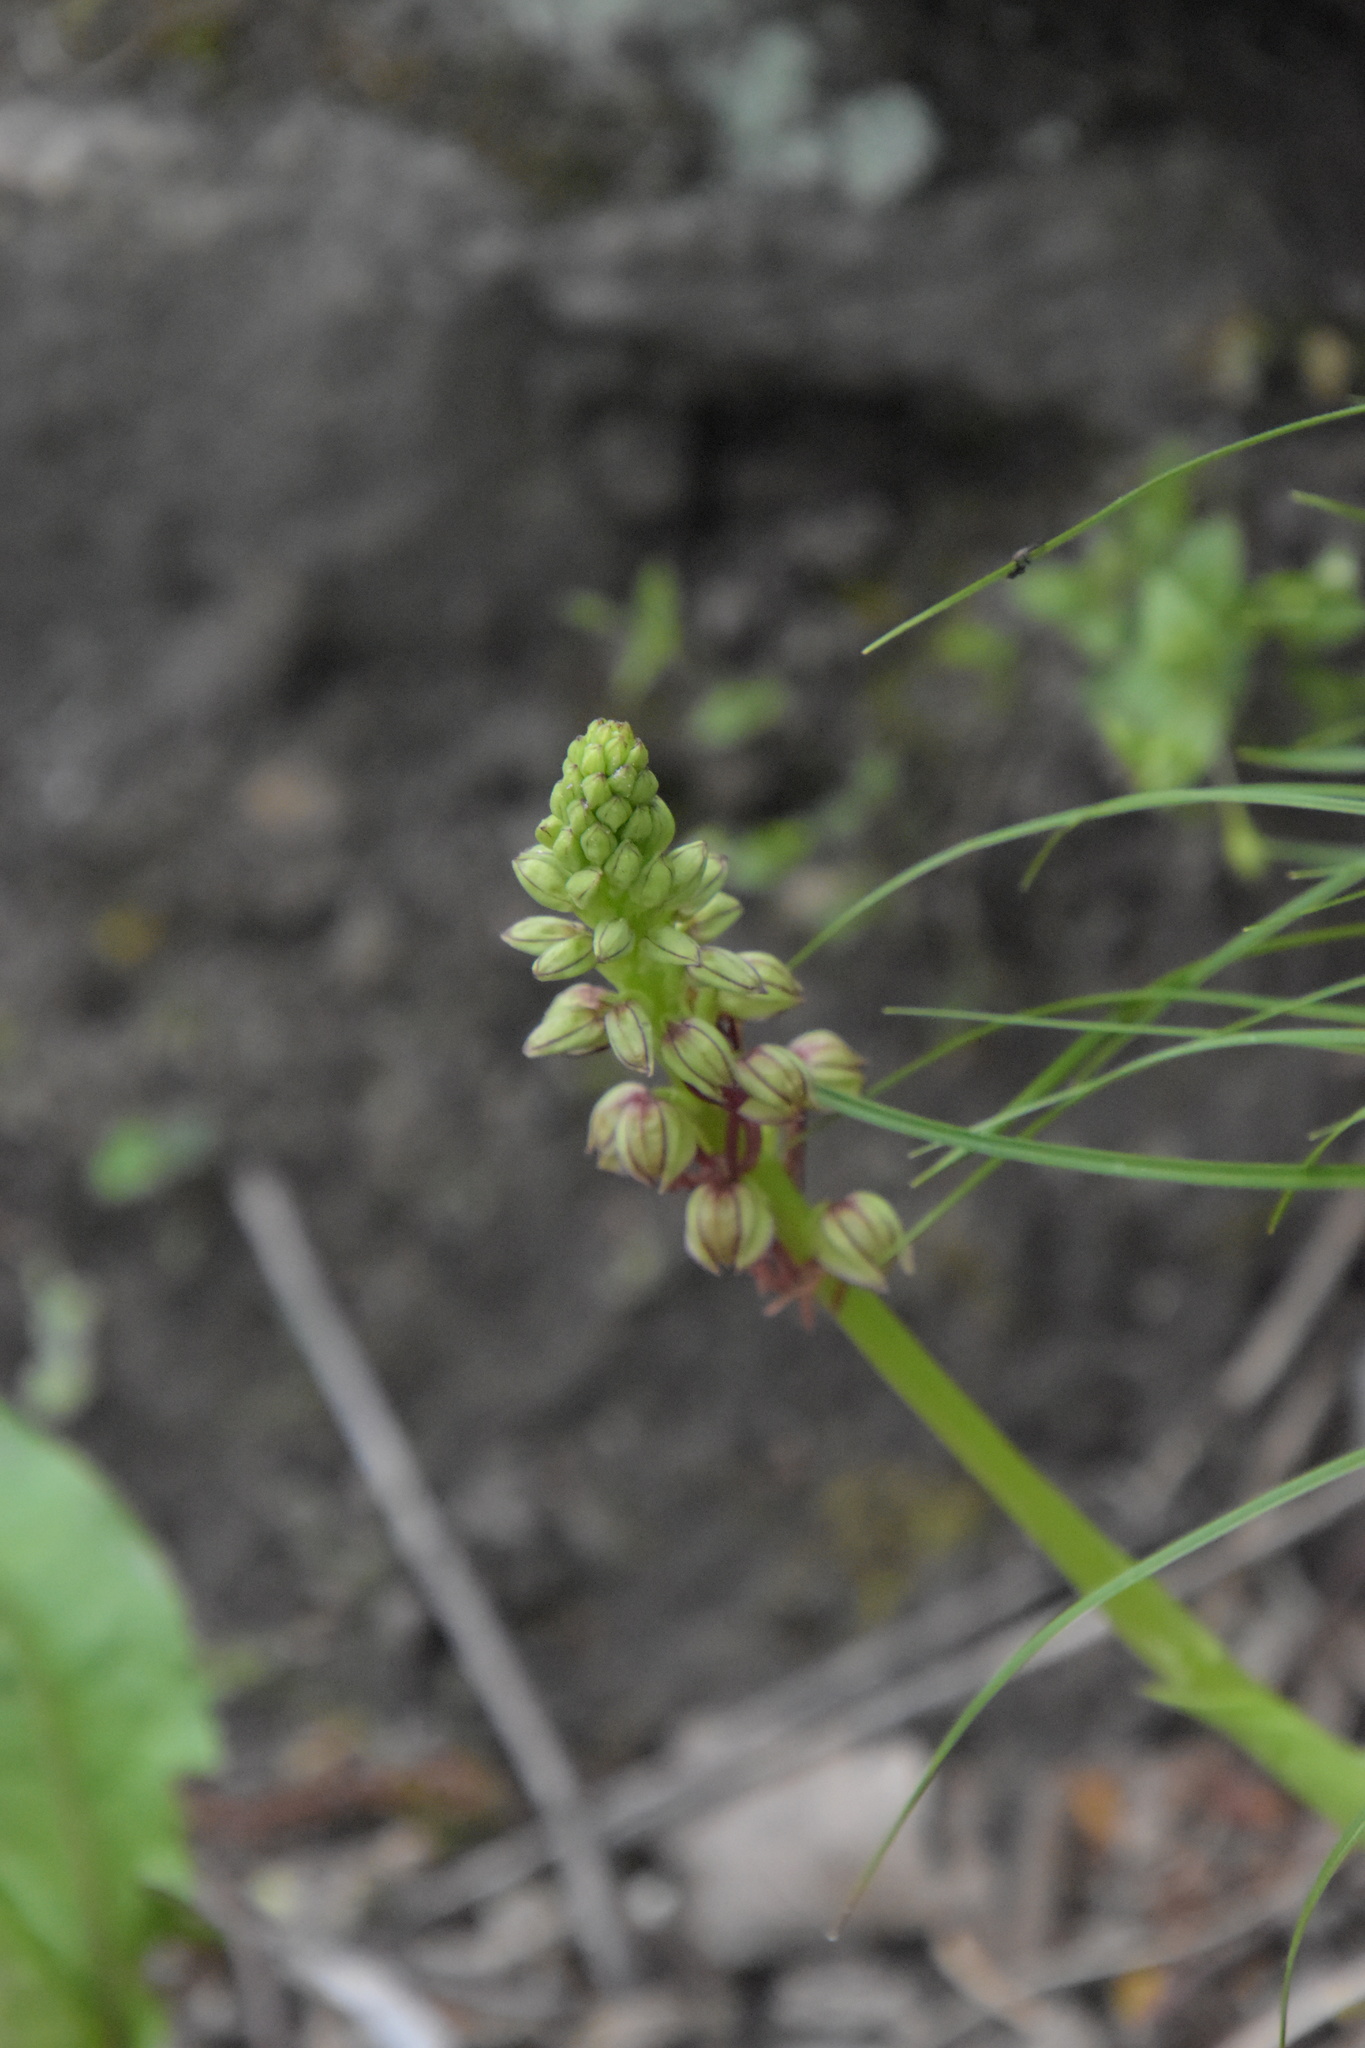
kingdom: Plantae
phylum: Tracheophyta
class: Liliopsida
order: Asparagales
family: Orchidaceae
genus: Orchis
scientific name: Orchis anthropophora
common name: Man orchid
